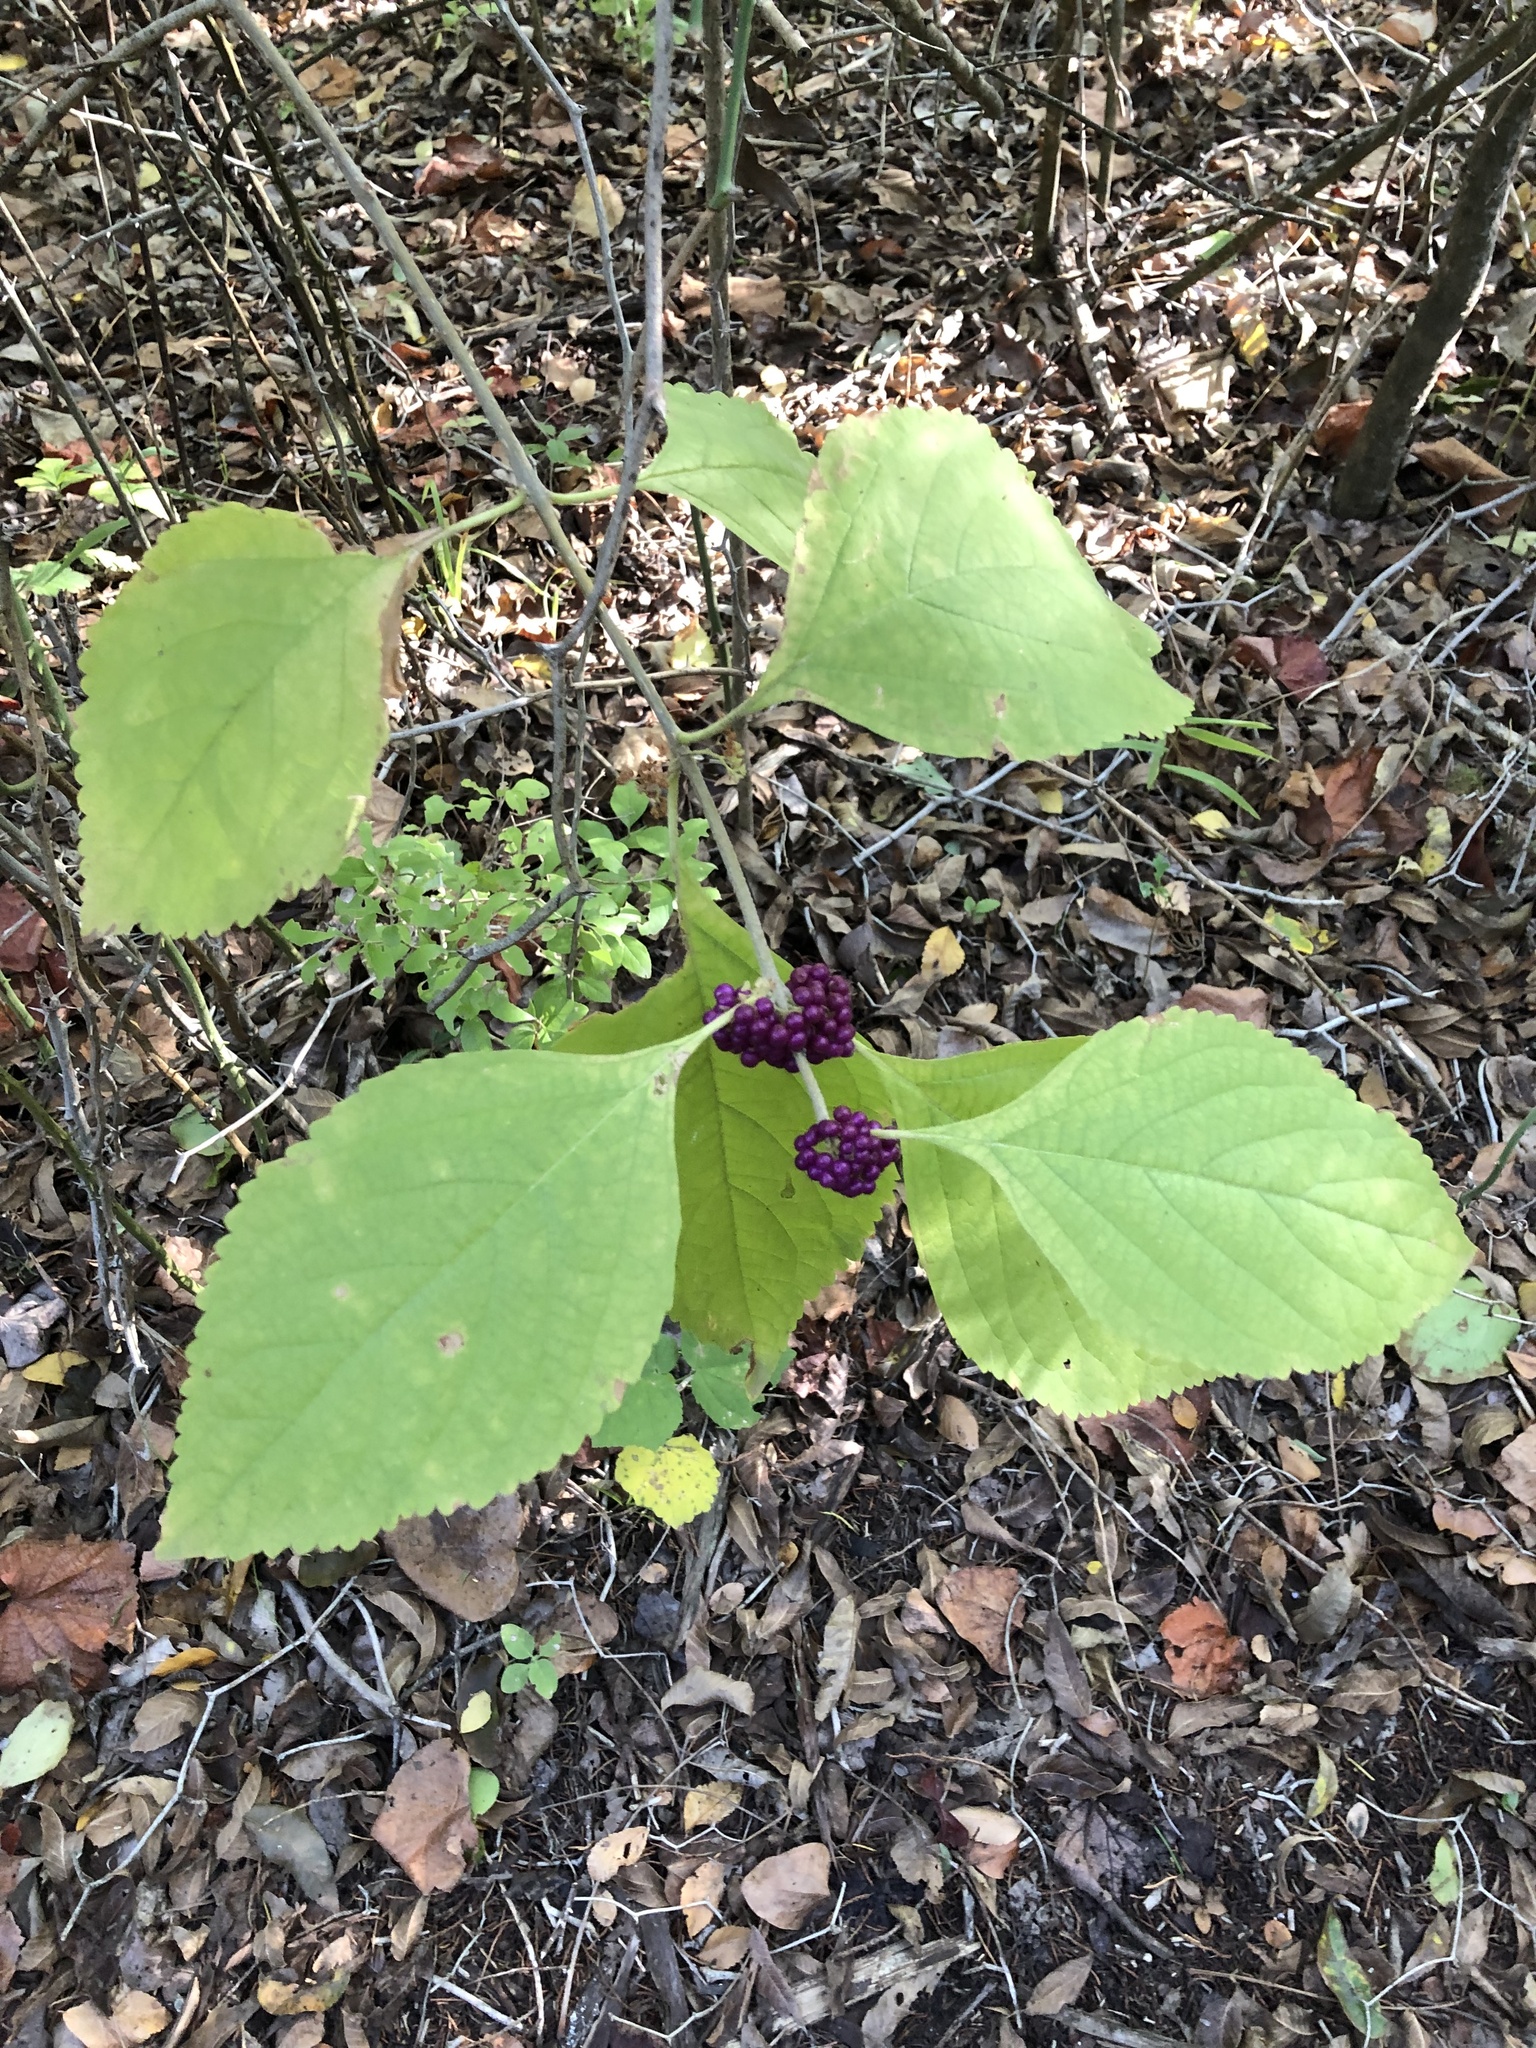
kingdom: Plantae
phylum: Tracheophyta
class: Magnoliopsida
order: Lamiales
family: Lamiaceae
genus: Callicarpa
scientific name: Callicarpa americana
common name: American beautyberry
